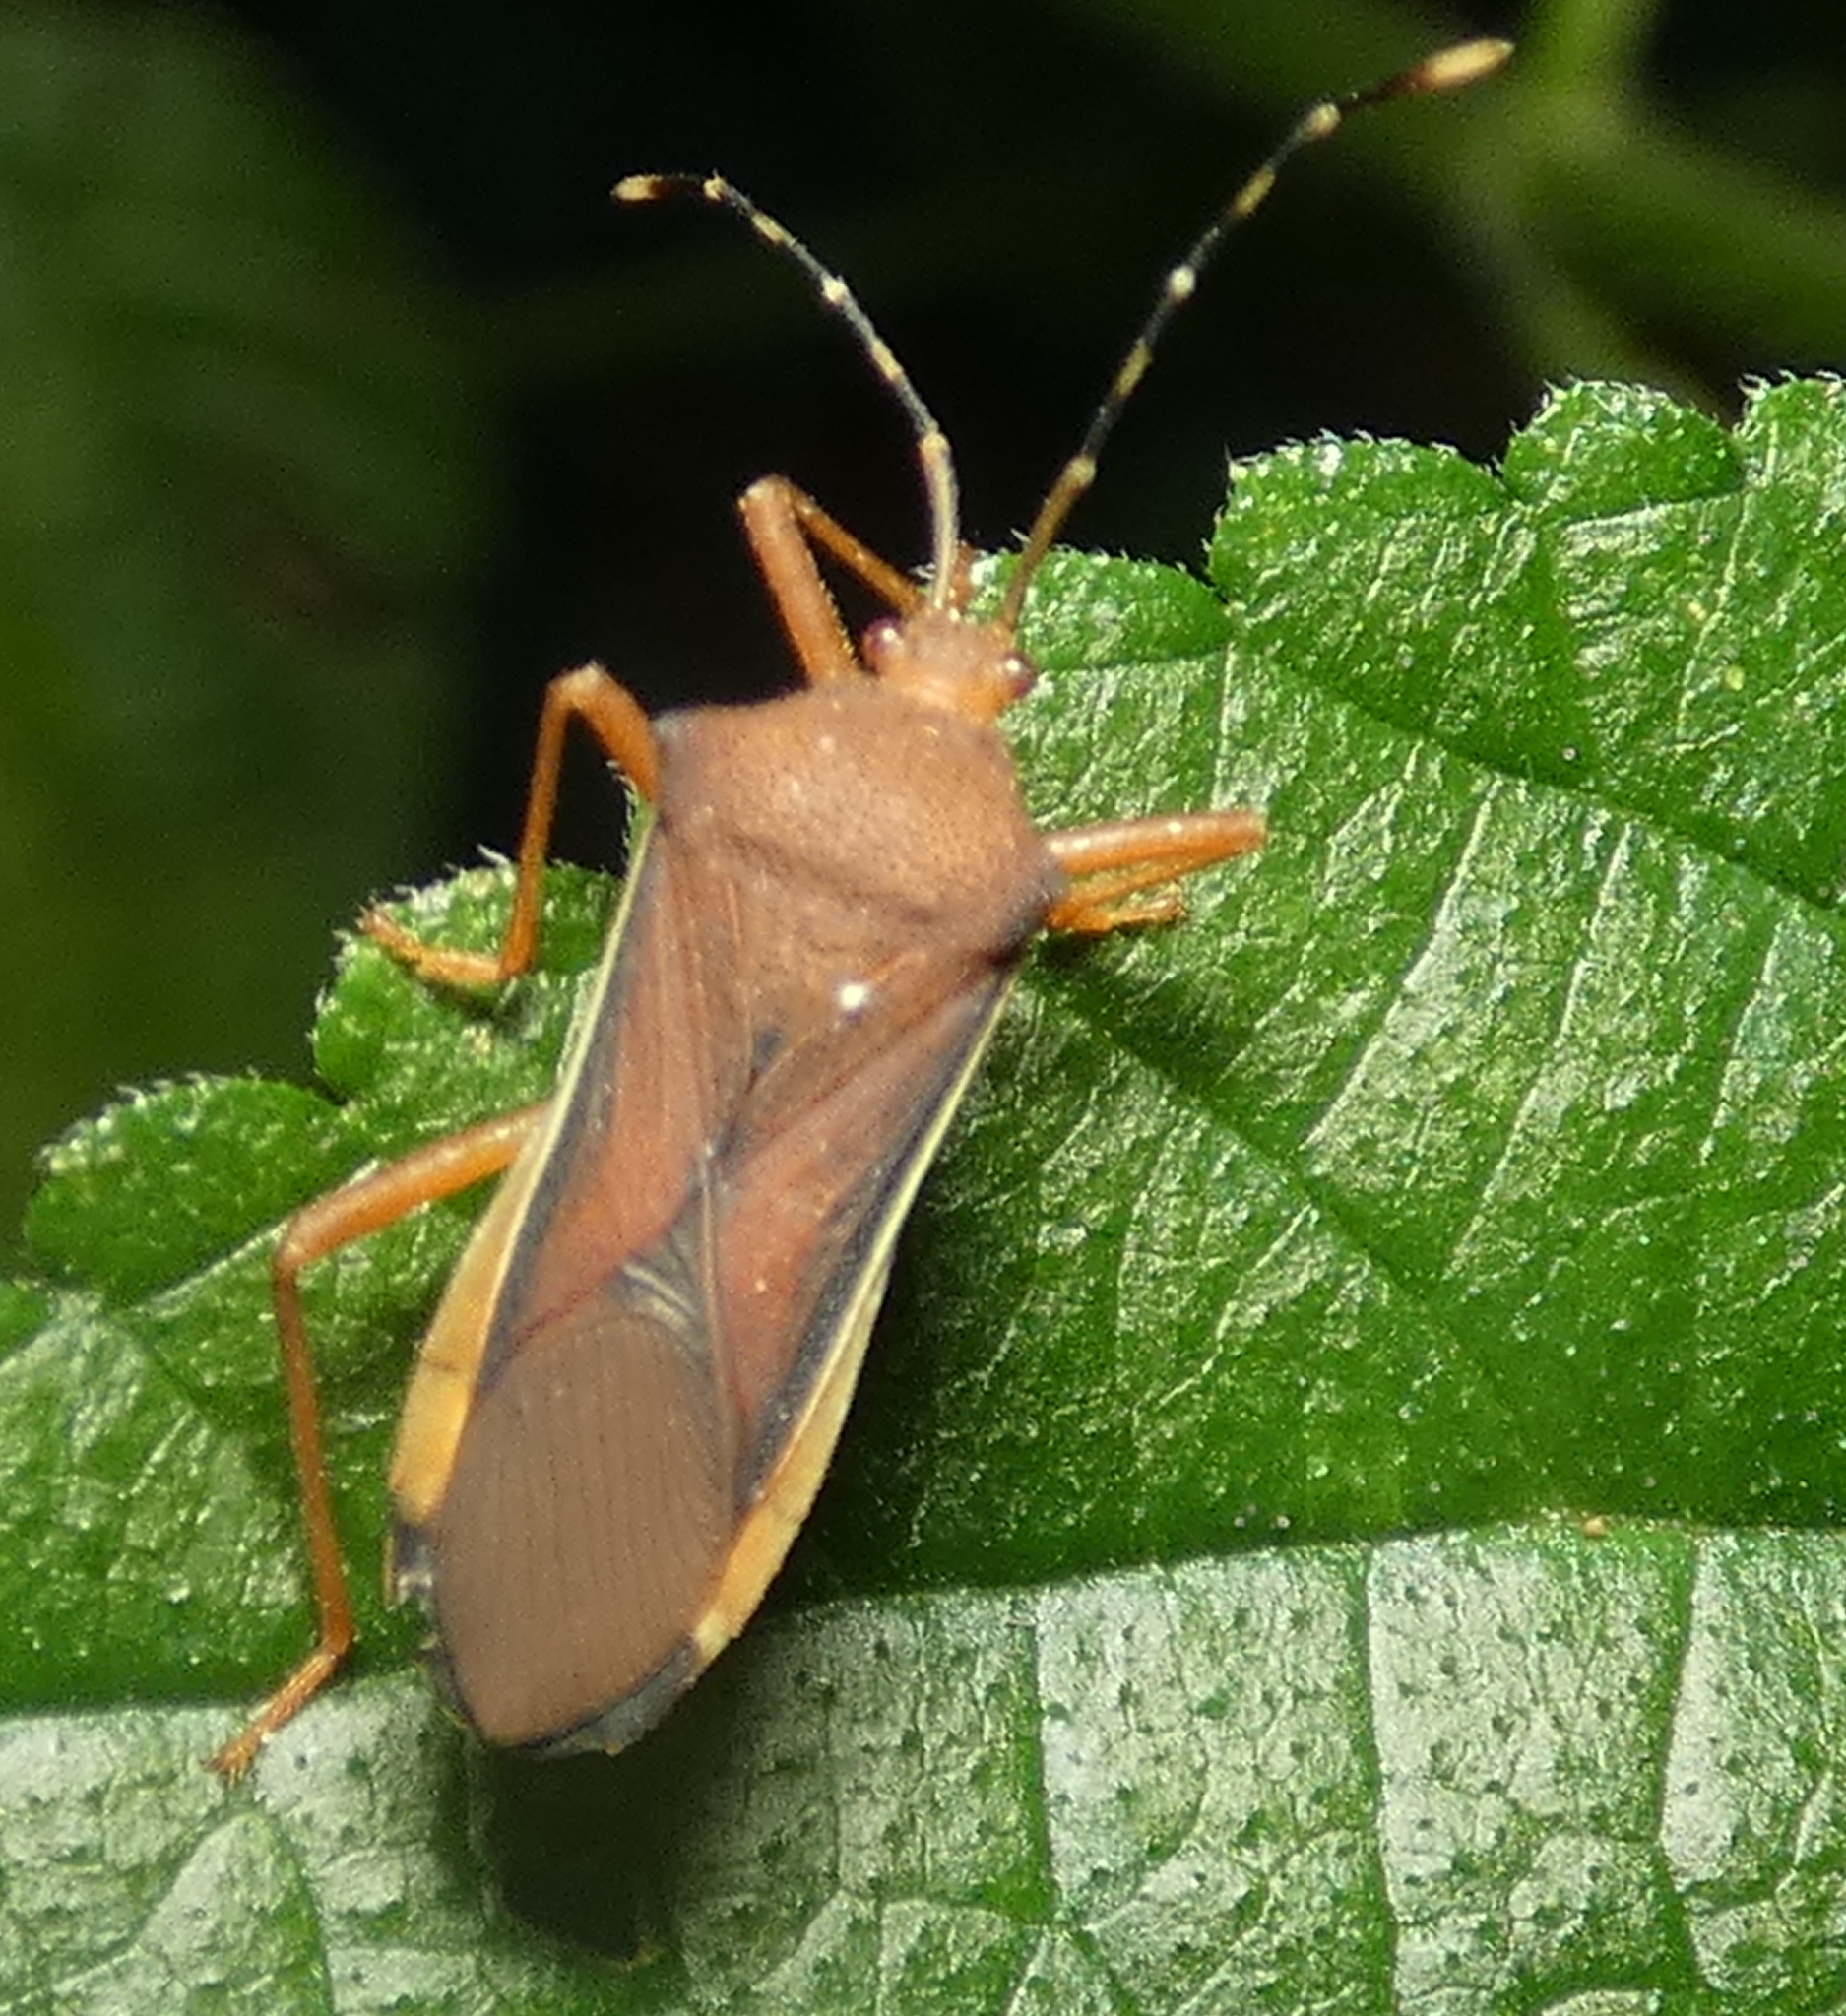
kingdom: Animalia
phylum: Arthropoda
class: Insecta
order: Hemiptera
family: Coreidae
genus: Anasa
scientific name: Anasa varicornis
